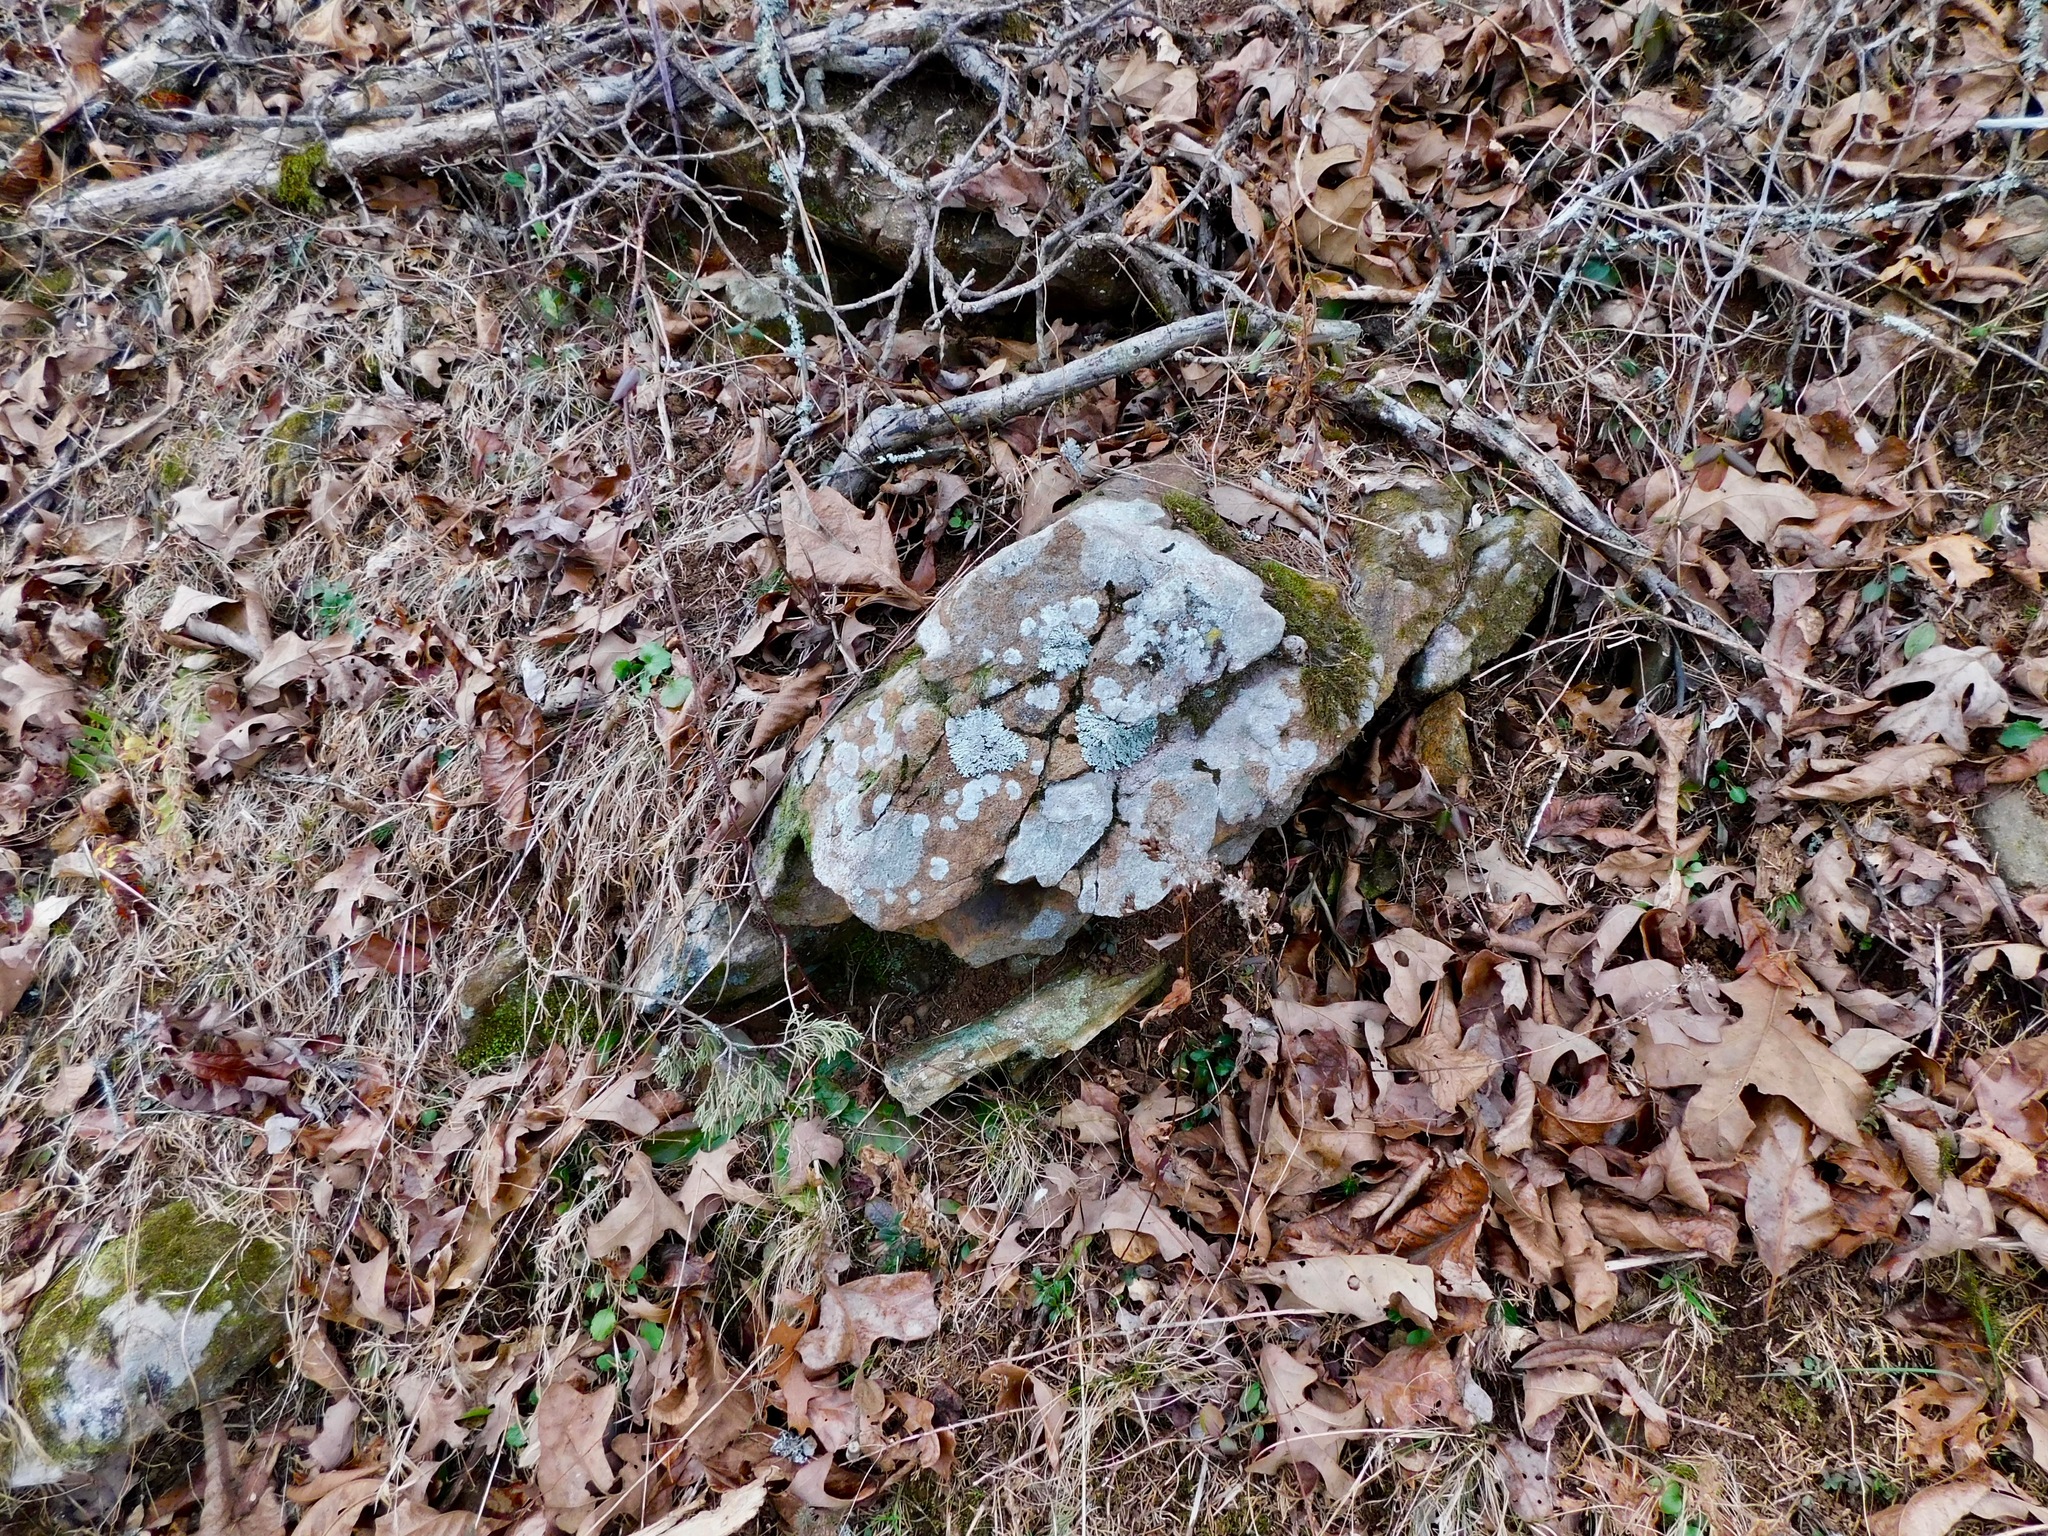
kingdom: Fungi
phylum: Ascomycota
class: Lecanoromycetes
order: Caliciales
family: Physciaceae
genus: Heterodermia
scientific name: Heterodermia speciosa
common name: Powdered fringe lichen
